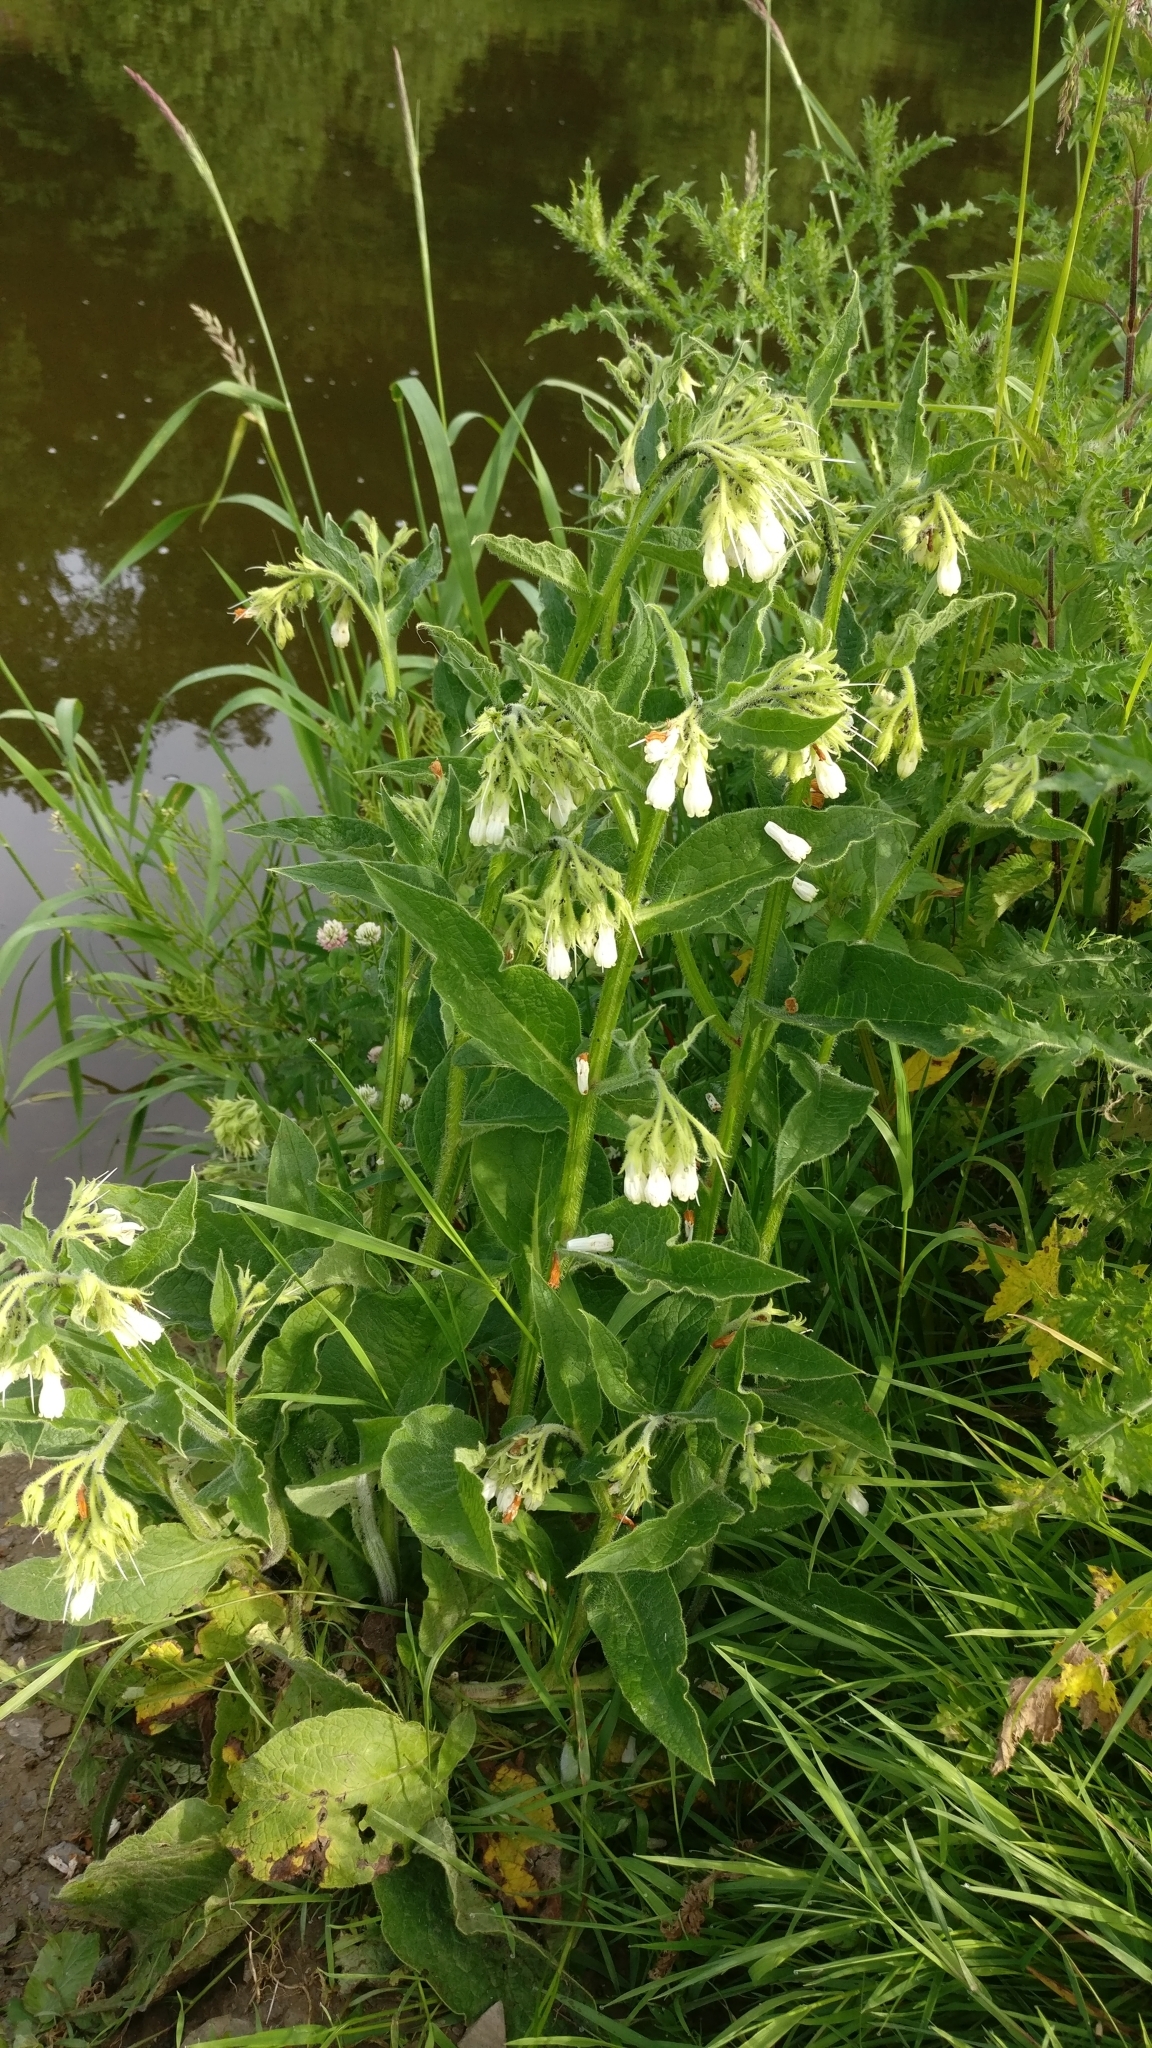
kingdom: Plantae
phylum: Tracheophyta
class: Magnoliopsida
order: Boraginales
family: Boraginaceae
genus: Symphytum
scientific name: Symphytum officinale
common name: Common comfrey
